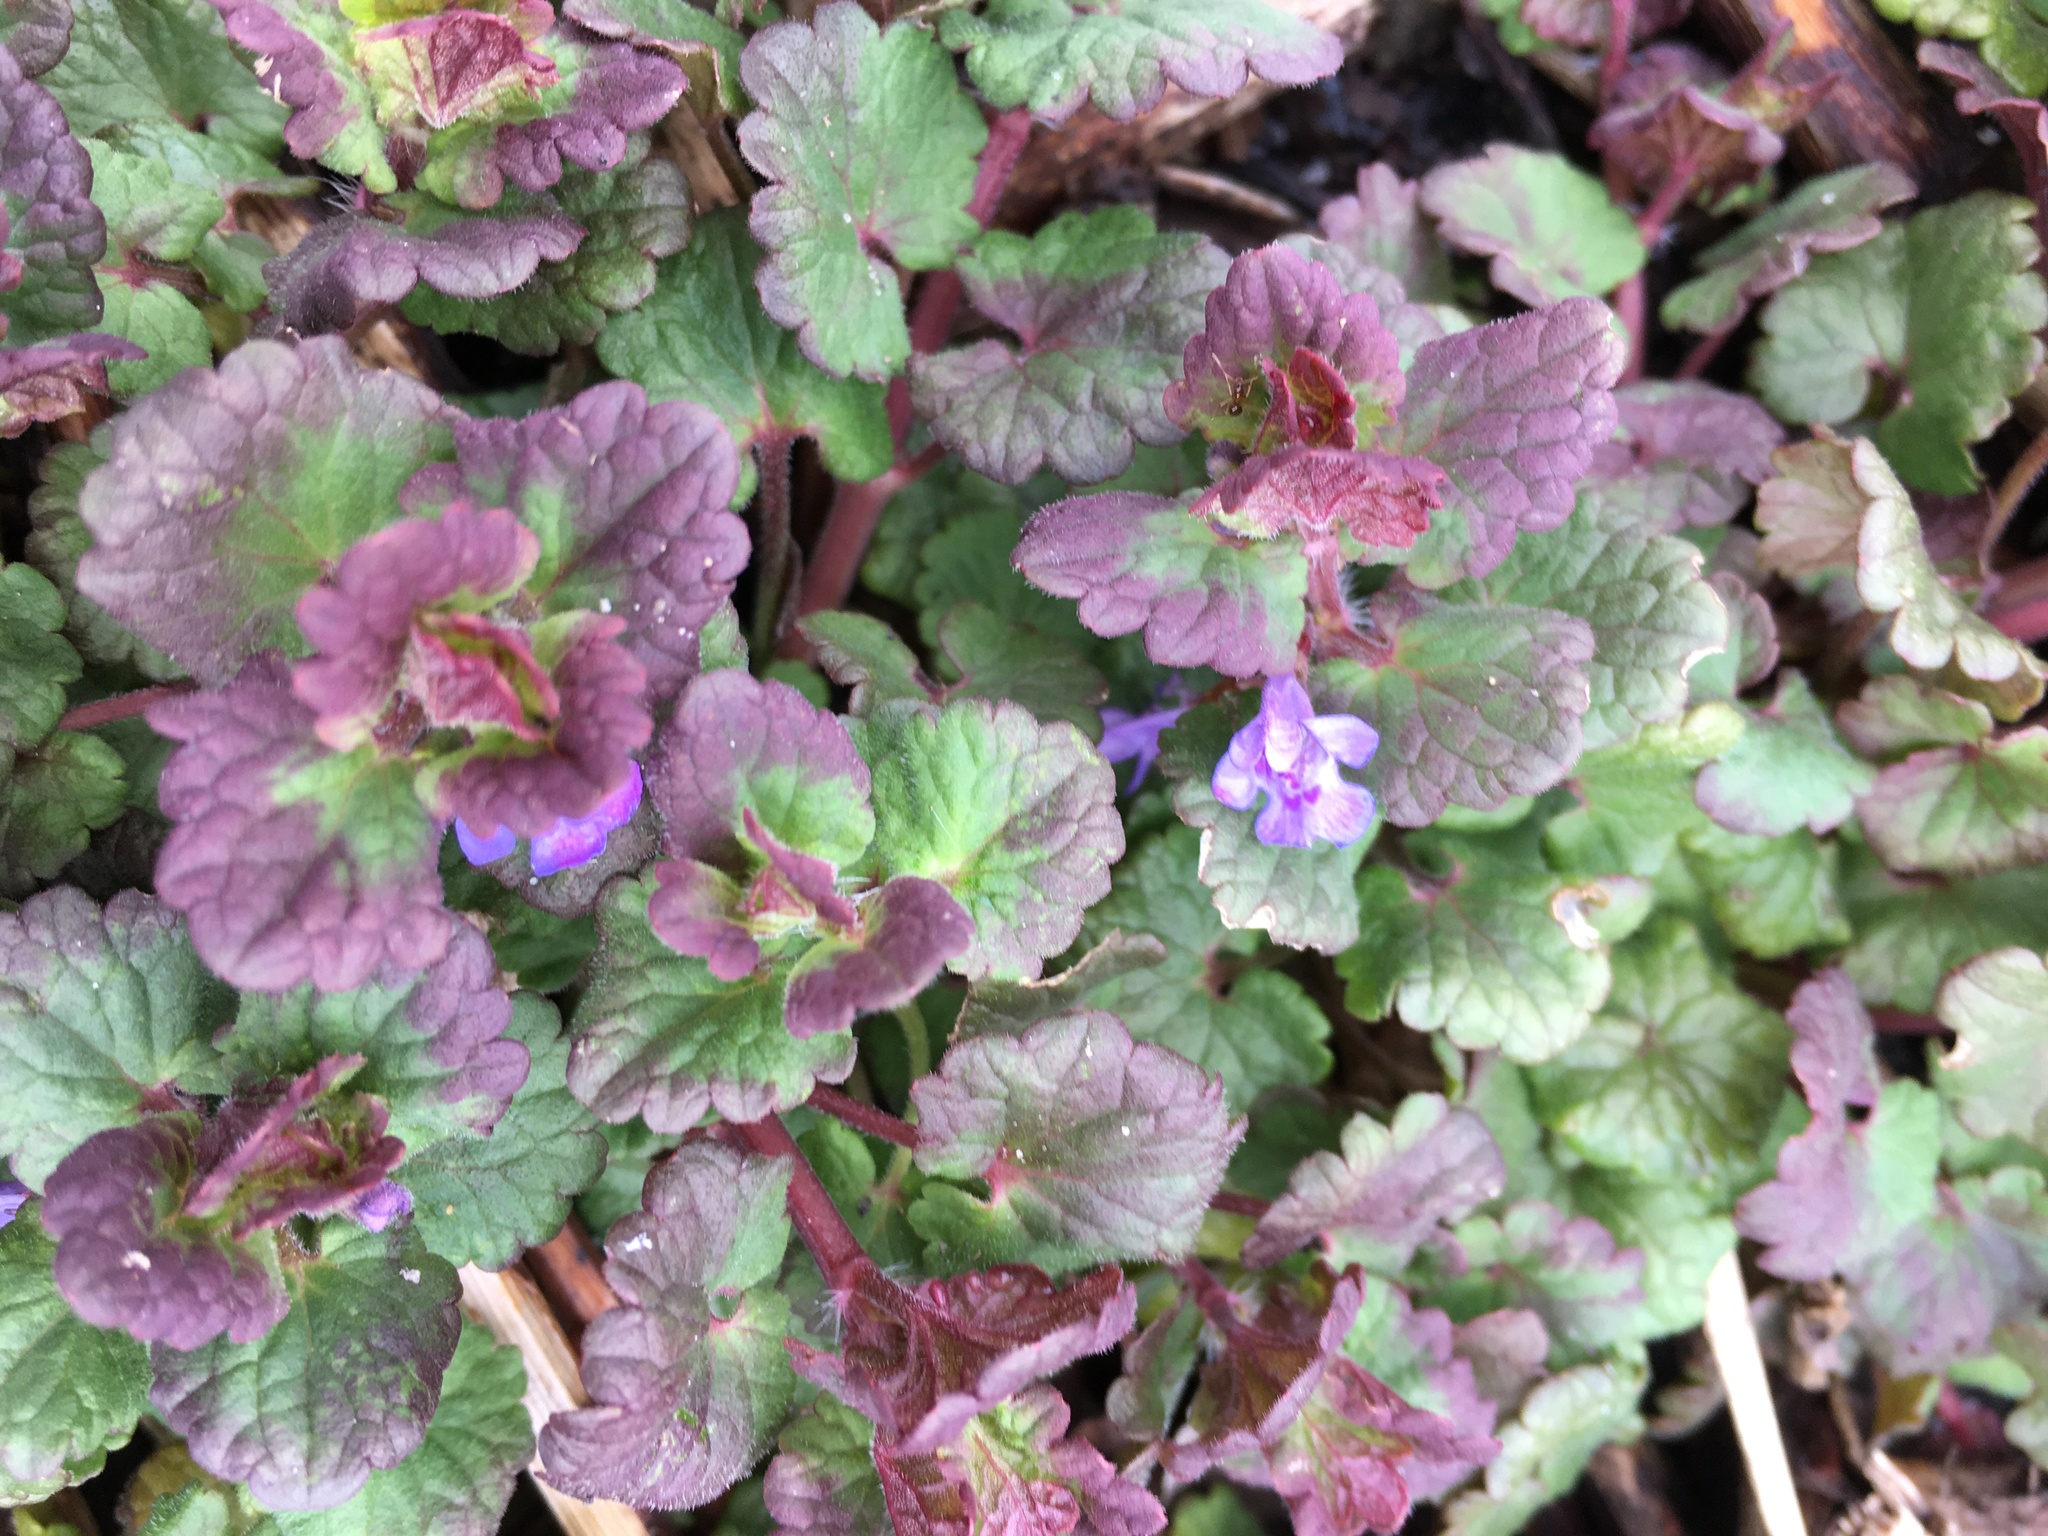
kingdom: Plantae
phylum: Tracheophyta
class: Magnoliopsida
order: Lamiales
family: Lamiaceae
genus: Glechoma
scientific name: Glechoma hederacea
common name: Ground ivy
